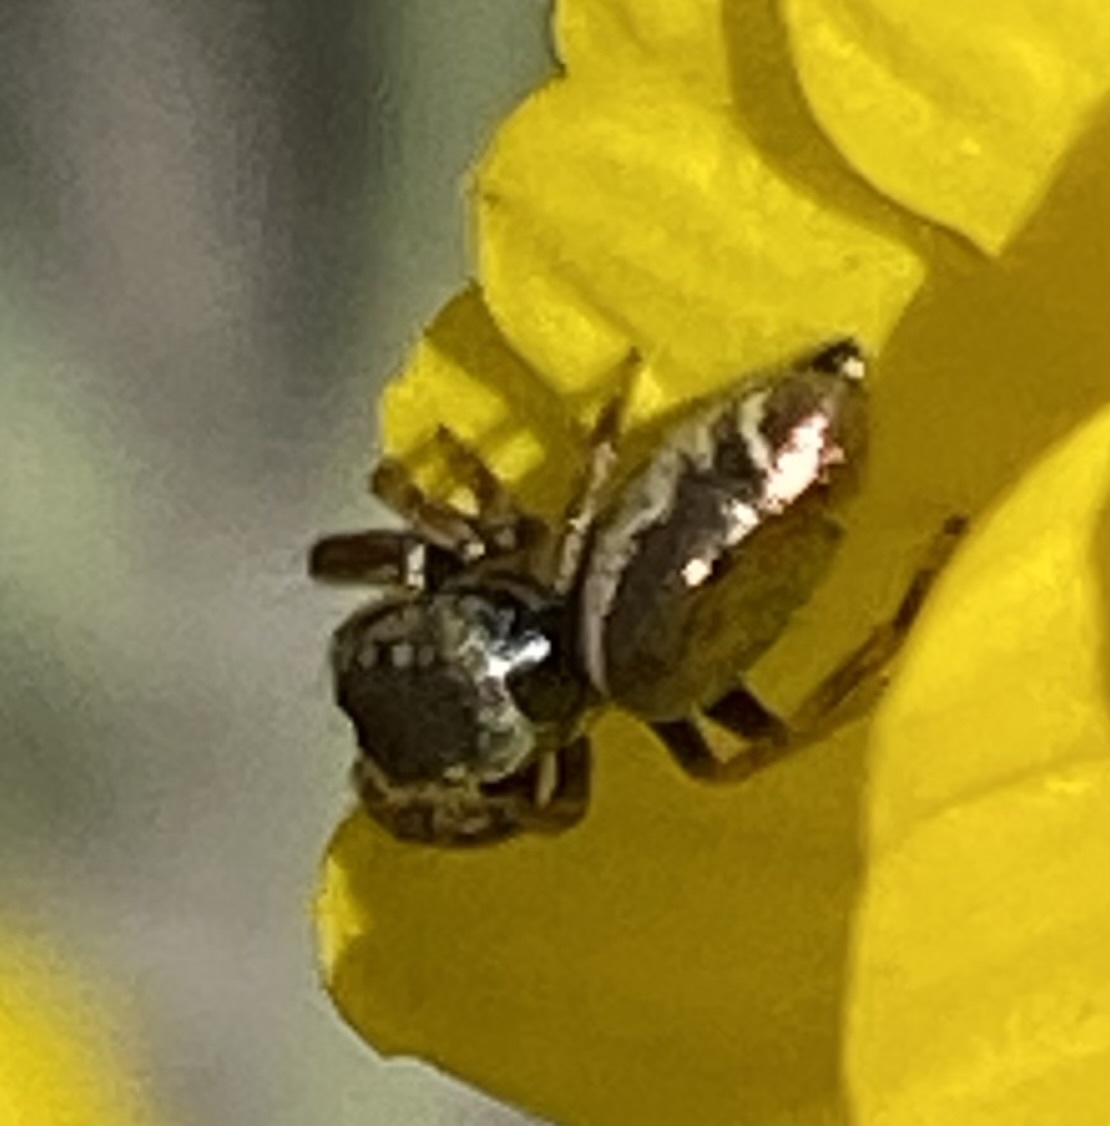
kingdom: Animalia
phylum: Arthropoda
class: Arachnida
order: Araneae
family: Salticidae
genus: Sassacus
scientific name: Sassacus vitis
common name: Jumping spiders
